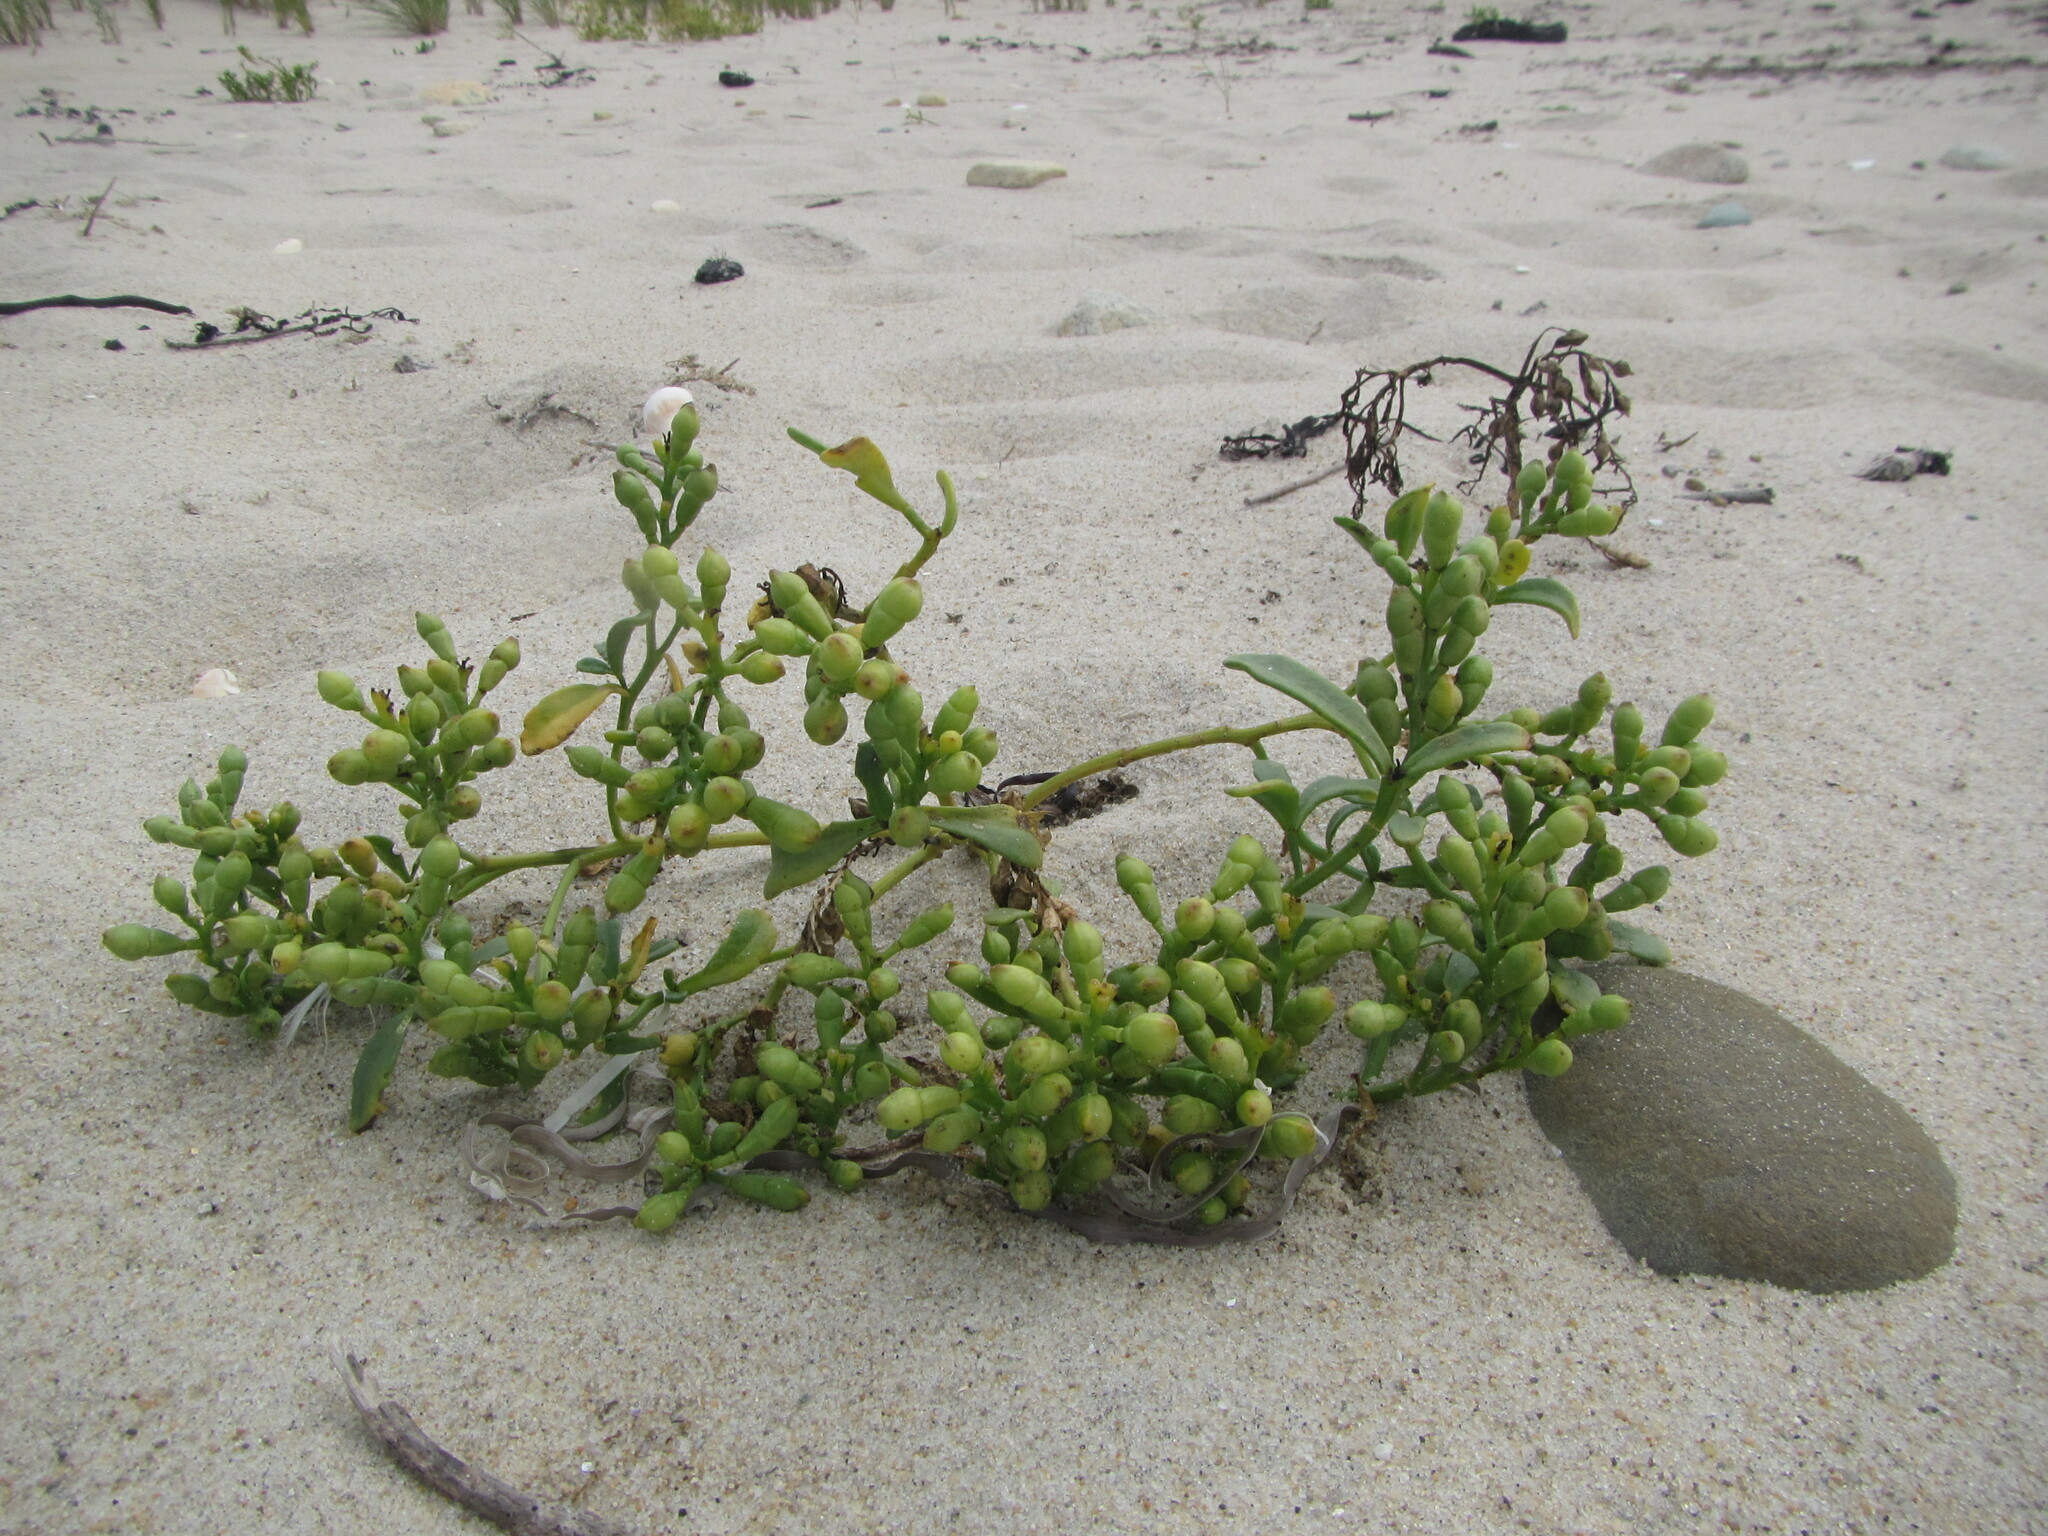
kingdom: Plantae
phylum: Tracheophyta
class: Magnoliopsida
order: Brassicales
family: Brassicaceae
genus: Cakile
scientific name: Cakile edentula
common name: American sea rocket
